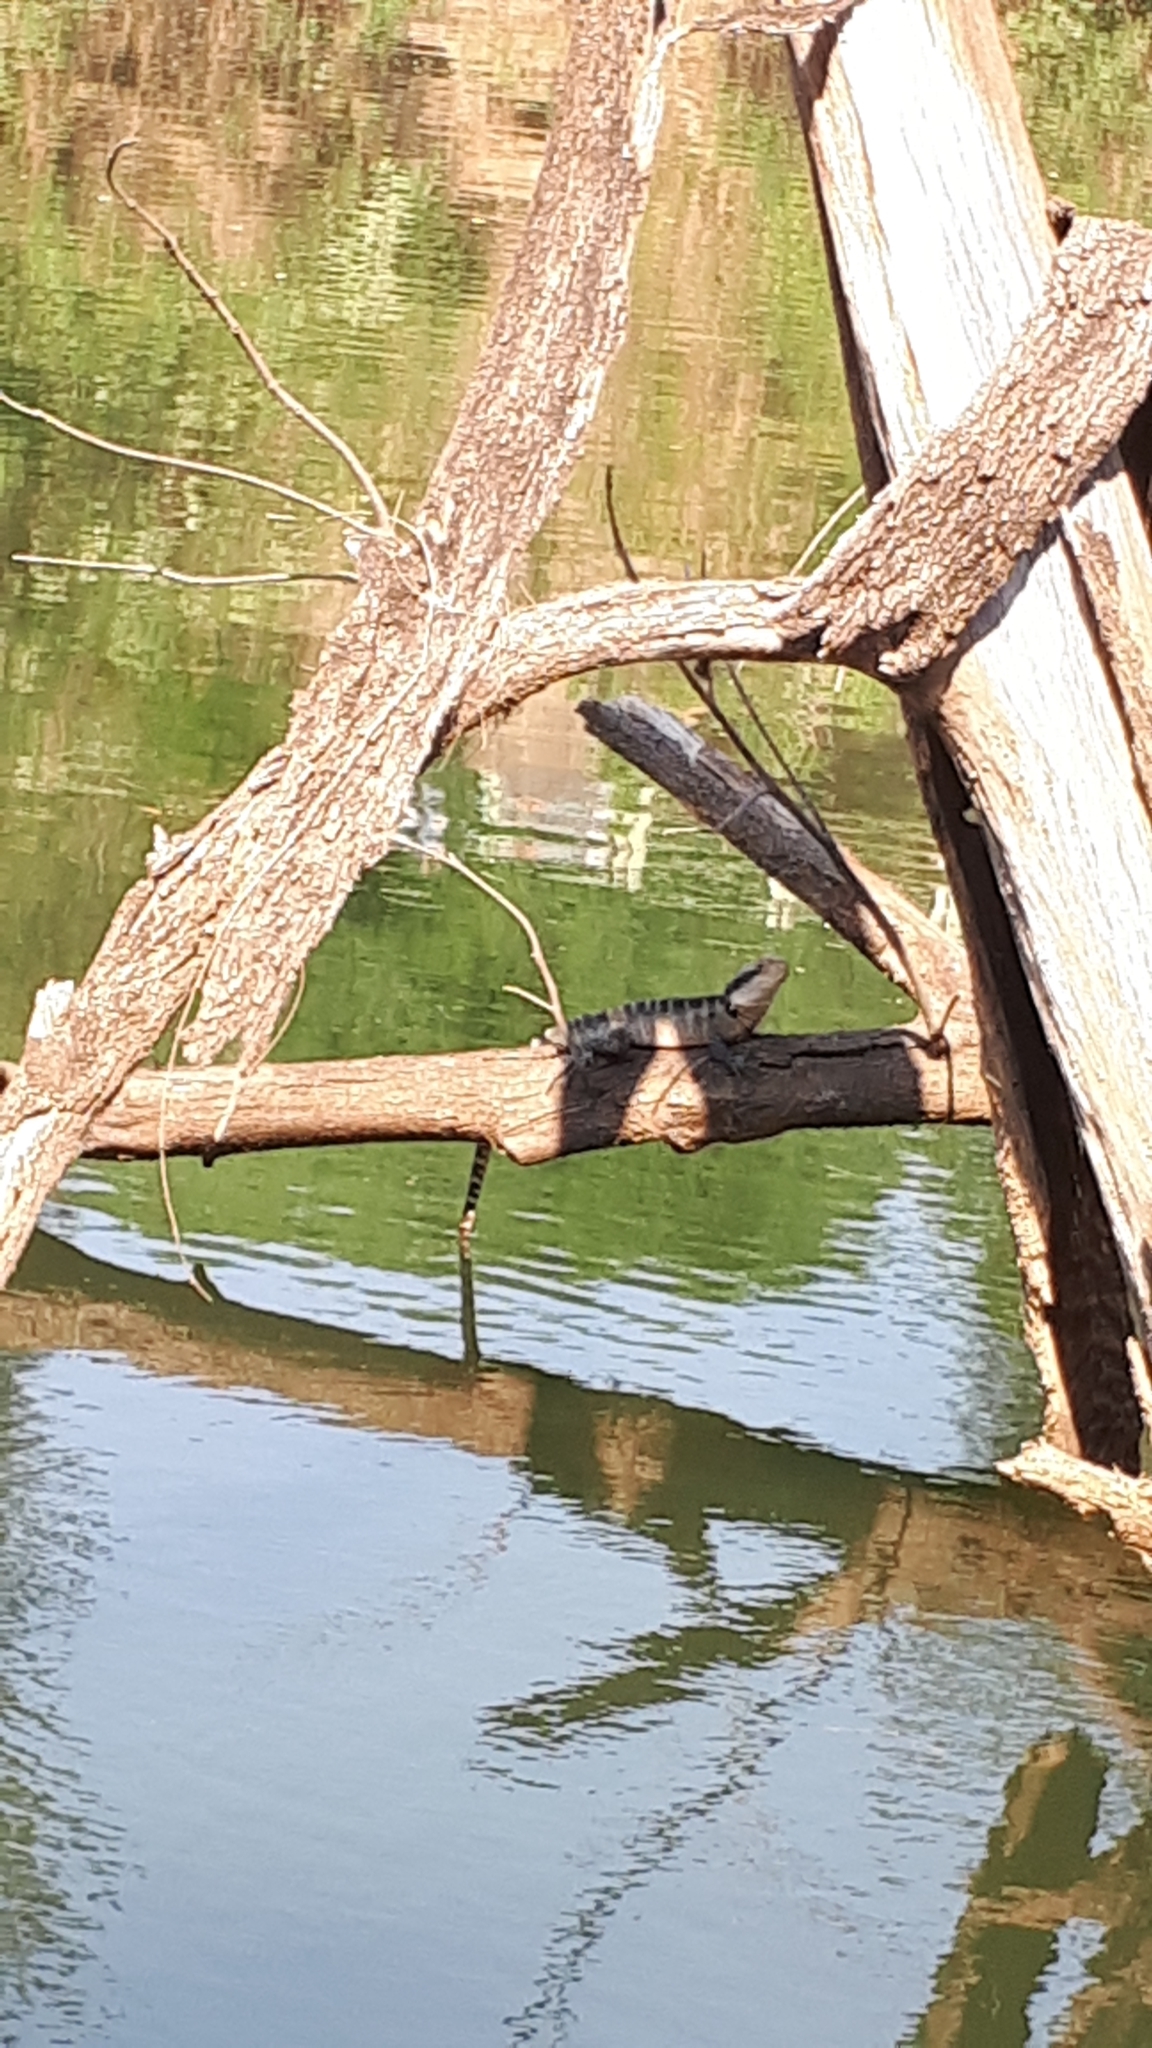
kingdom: Animalia
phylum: Chordata
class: Squamata
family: Agamidae
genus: Intellagama
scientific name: Intellagama lesueurii
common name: Eastern water dragon
